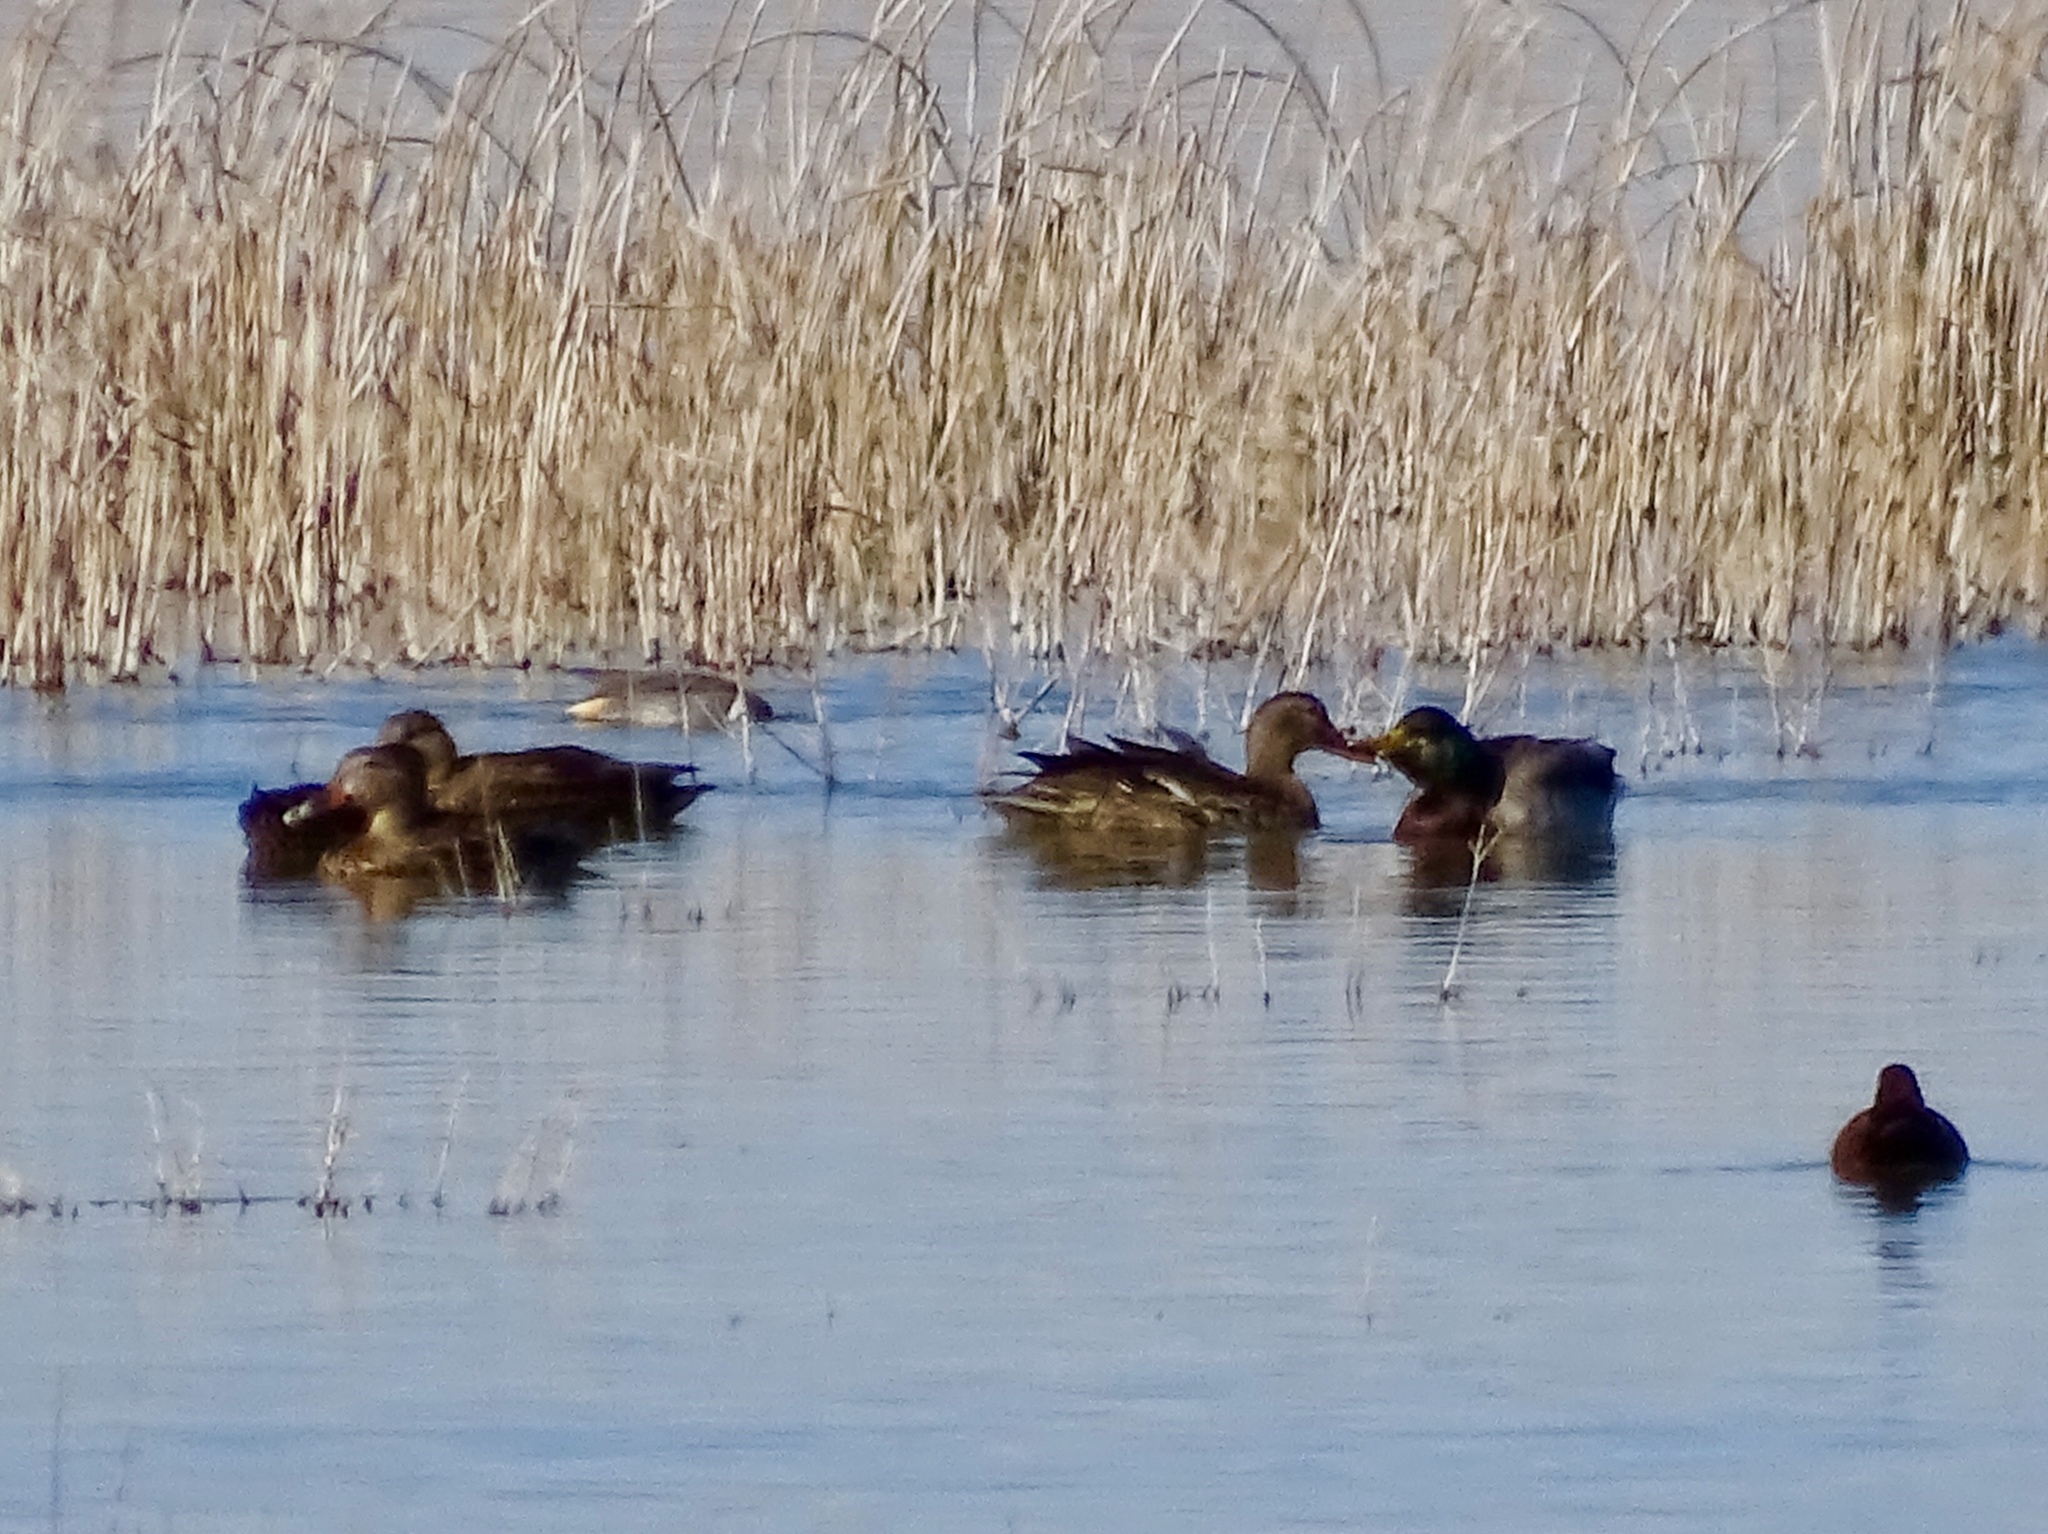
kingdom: Animalia
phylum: Chordata
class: Aves
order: Anseriformes
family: Anatidae
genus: Anas
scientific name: Anas platyrhynchos
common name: Mallard
